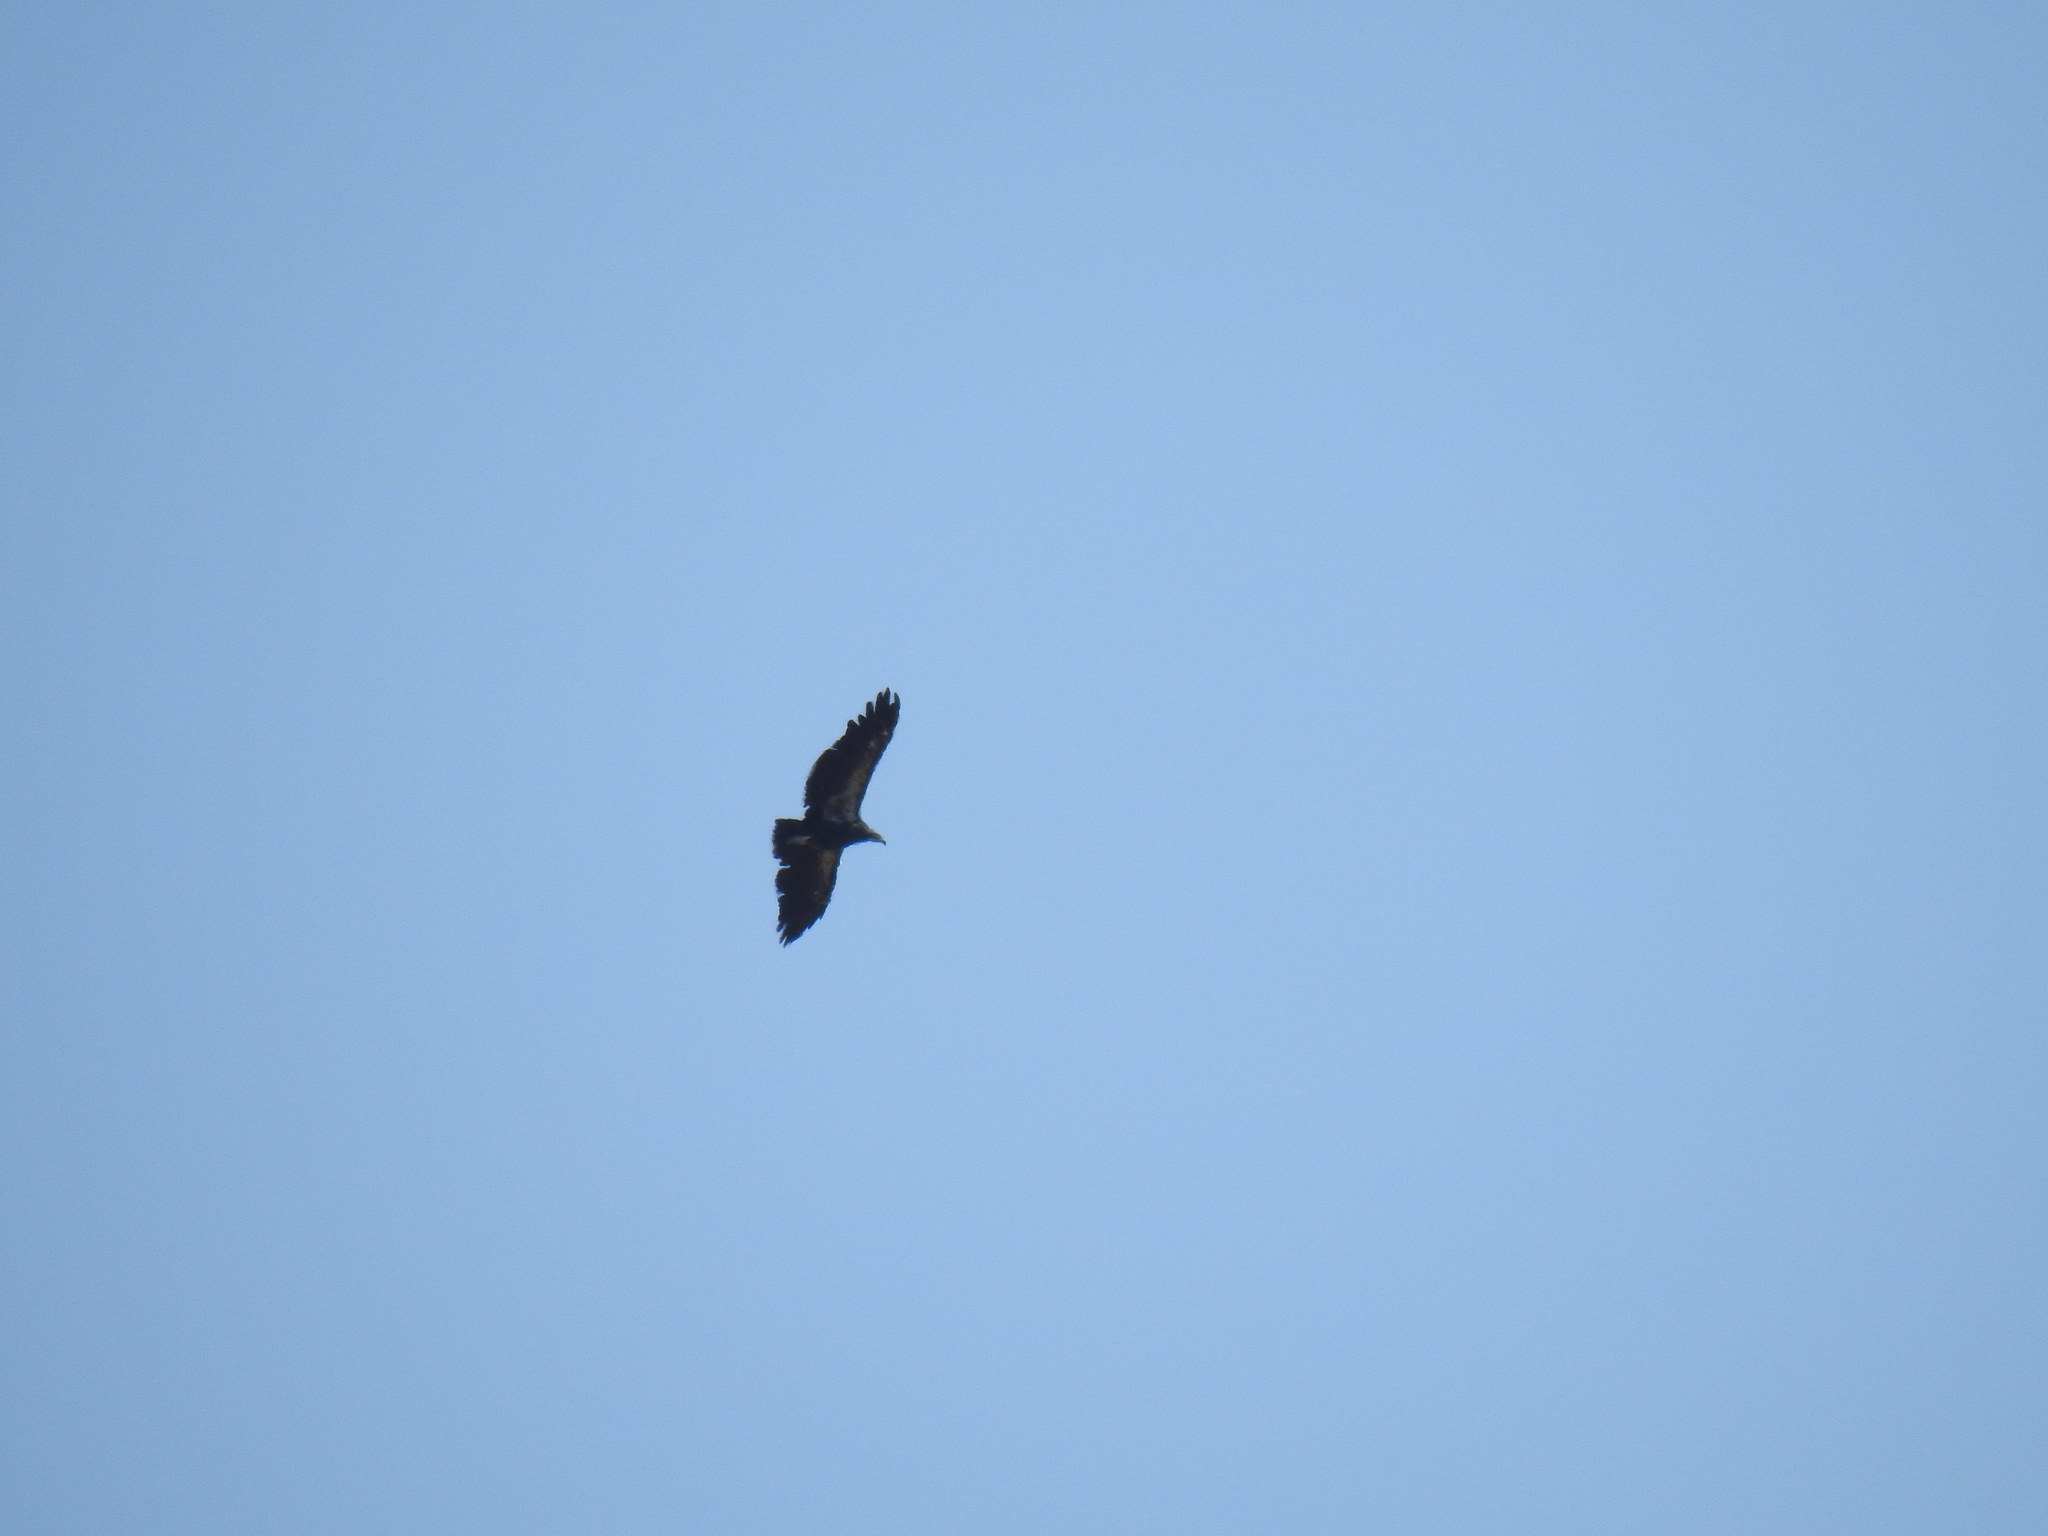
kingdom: Animalia
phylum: Chordata
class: Aves
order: Accipitriformes
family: Cathartidae
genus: Gymnogyps
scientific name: Gymnogyps californianus
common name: California condor
